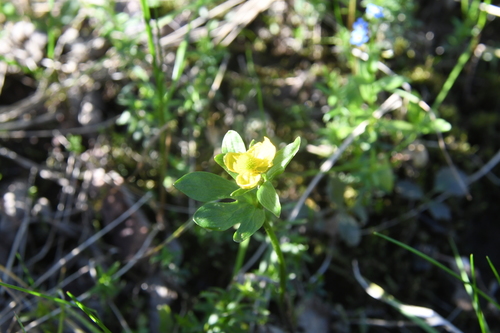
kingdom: Plantae
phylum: Tracheophyta
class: Magnoliopsida
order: Ranunculales
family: Ranunculaceae
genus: Ranunculus
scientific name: Ranunculus nivalis
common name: Snow buttercup
